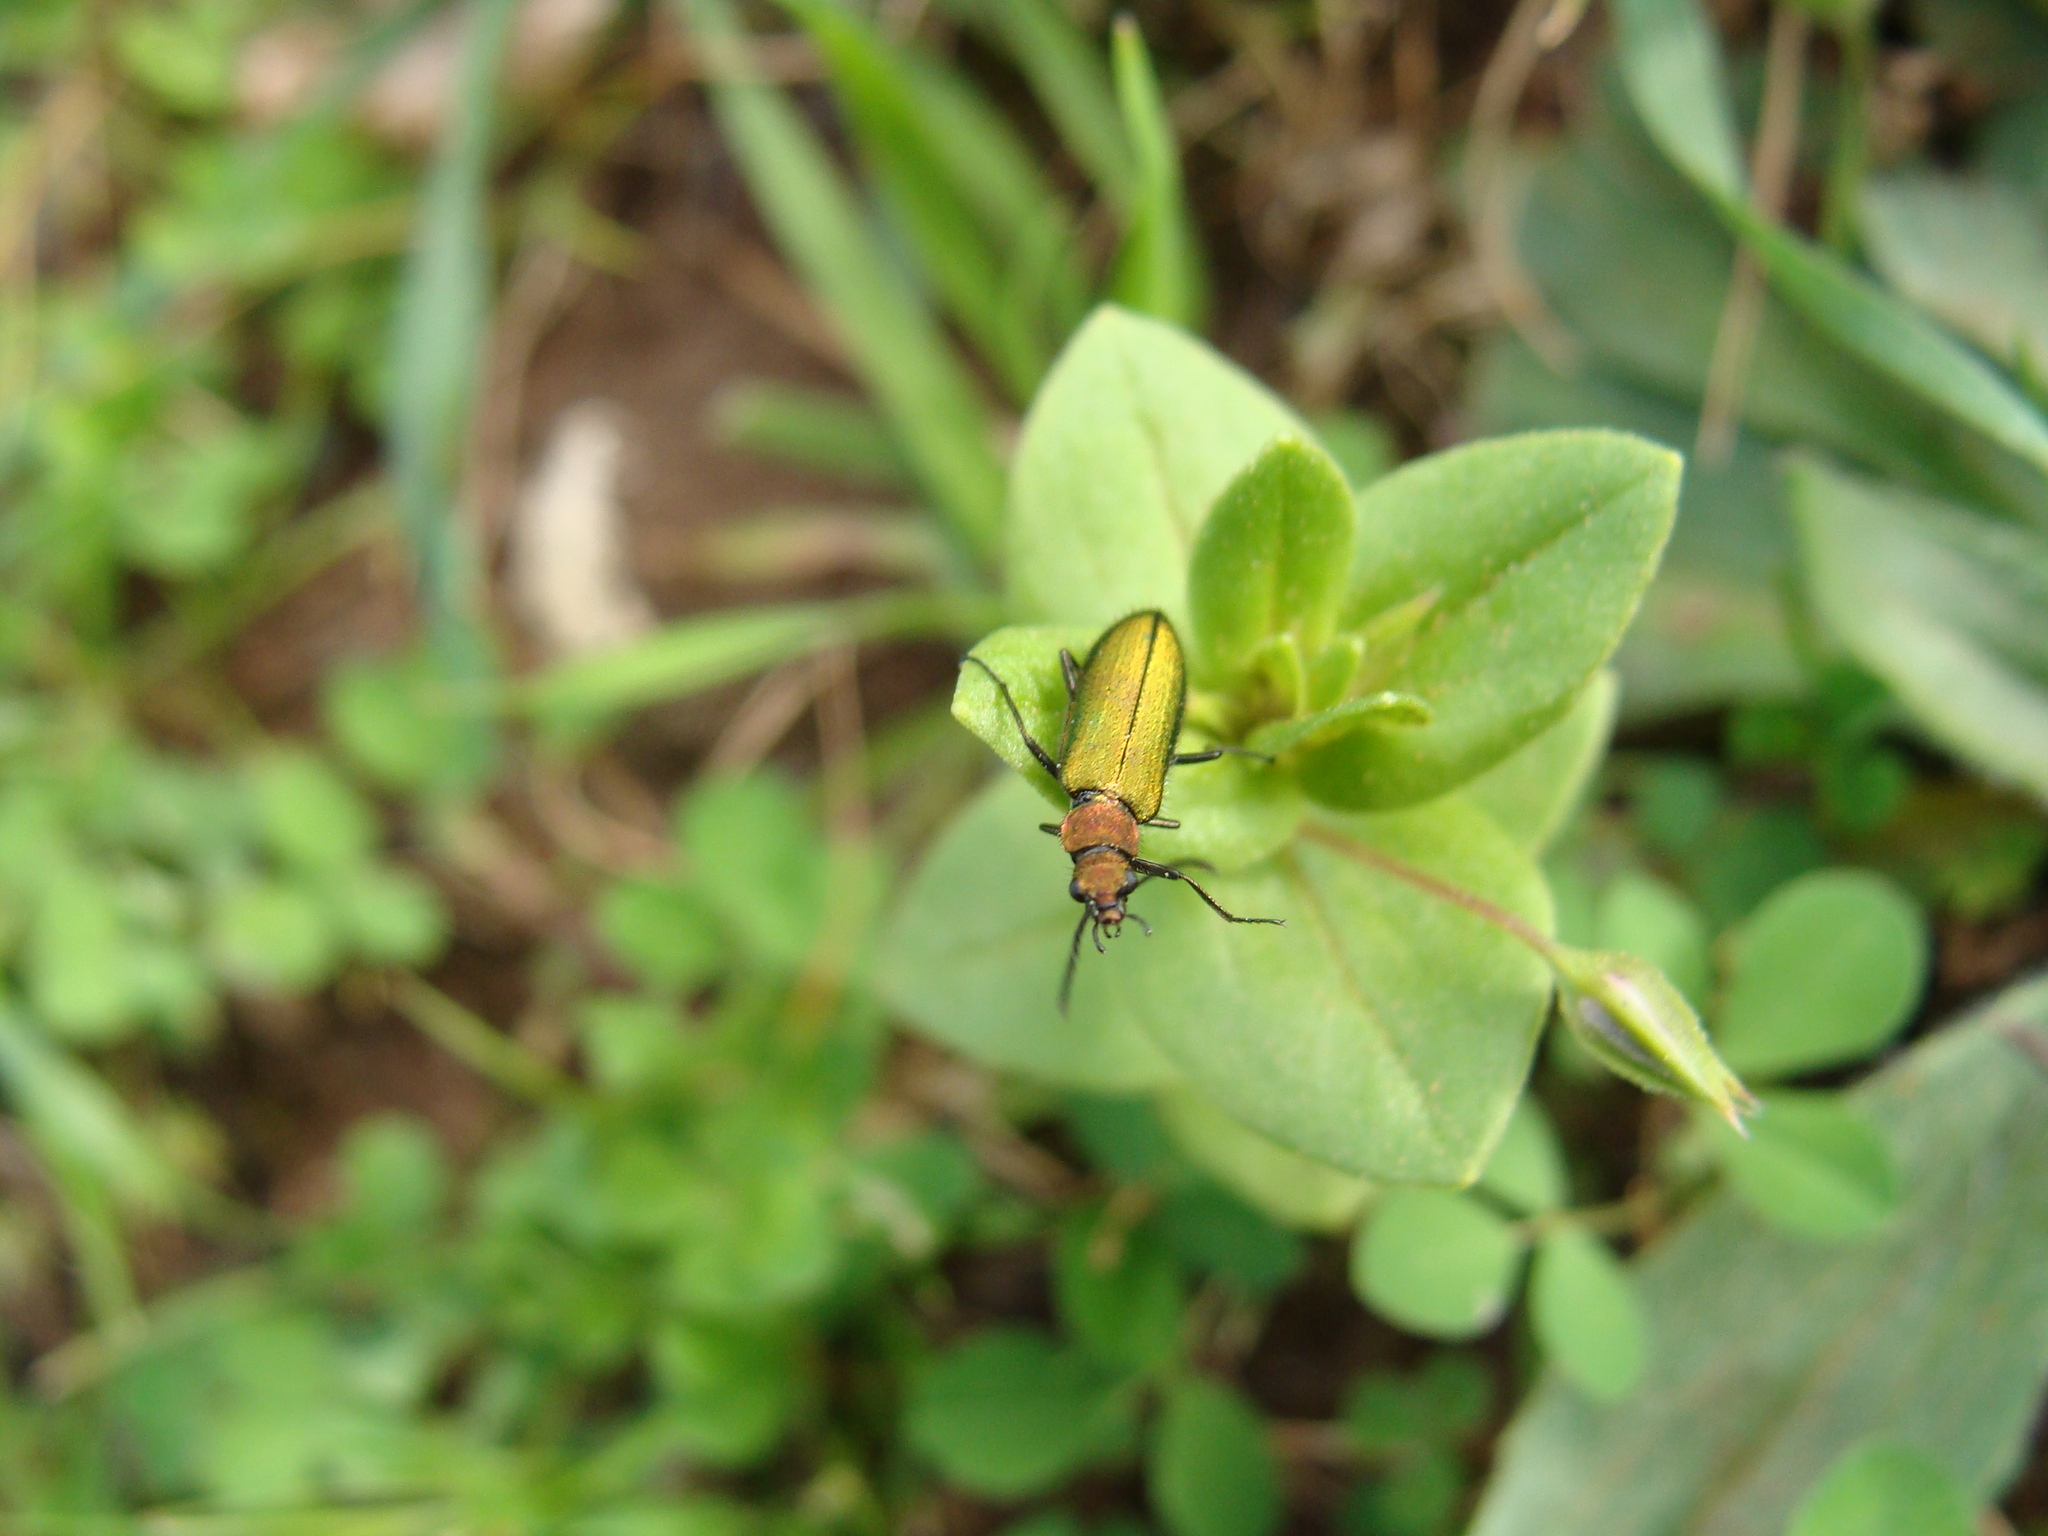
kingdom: Animalia
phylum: Arthropoda
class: Insecta
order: Coleoptera
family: Stenotrachelidae
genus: Stenotrachelus
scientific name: Stenotrachelus aeneus
